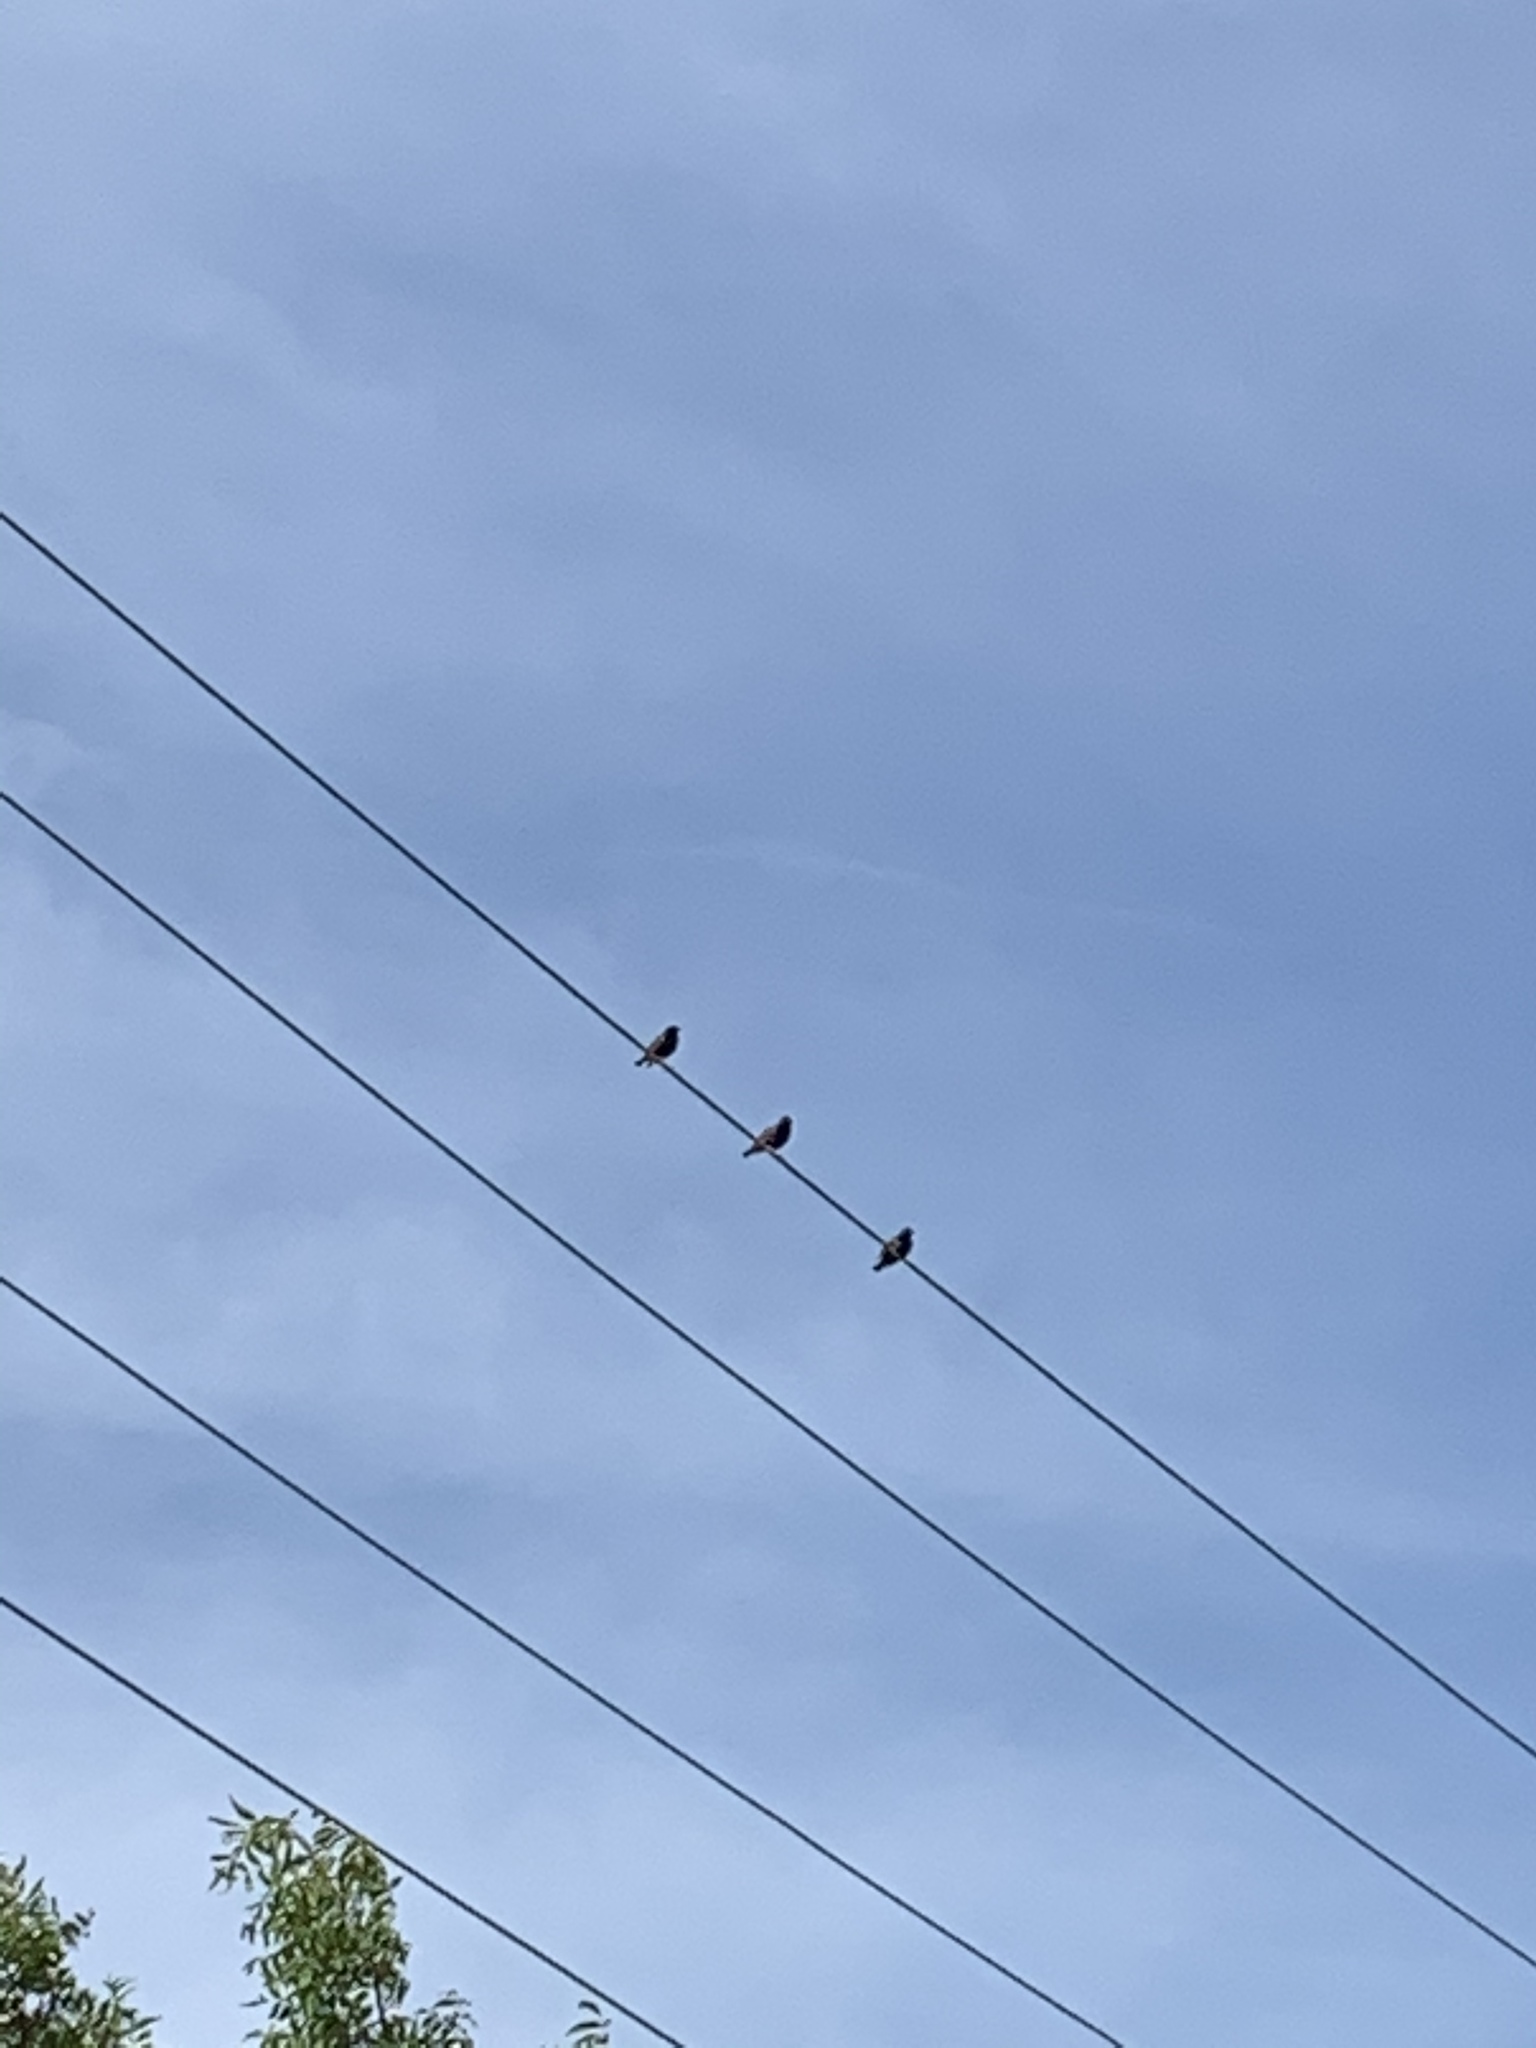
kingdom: Animalia
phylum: Chordata
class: Aves
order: Passeriformes
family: Sturnidae
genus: Sturnus
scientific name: Sturnus vulgaris
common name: Common starling
